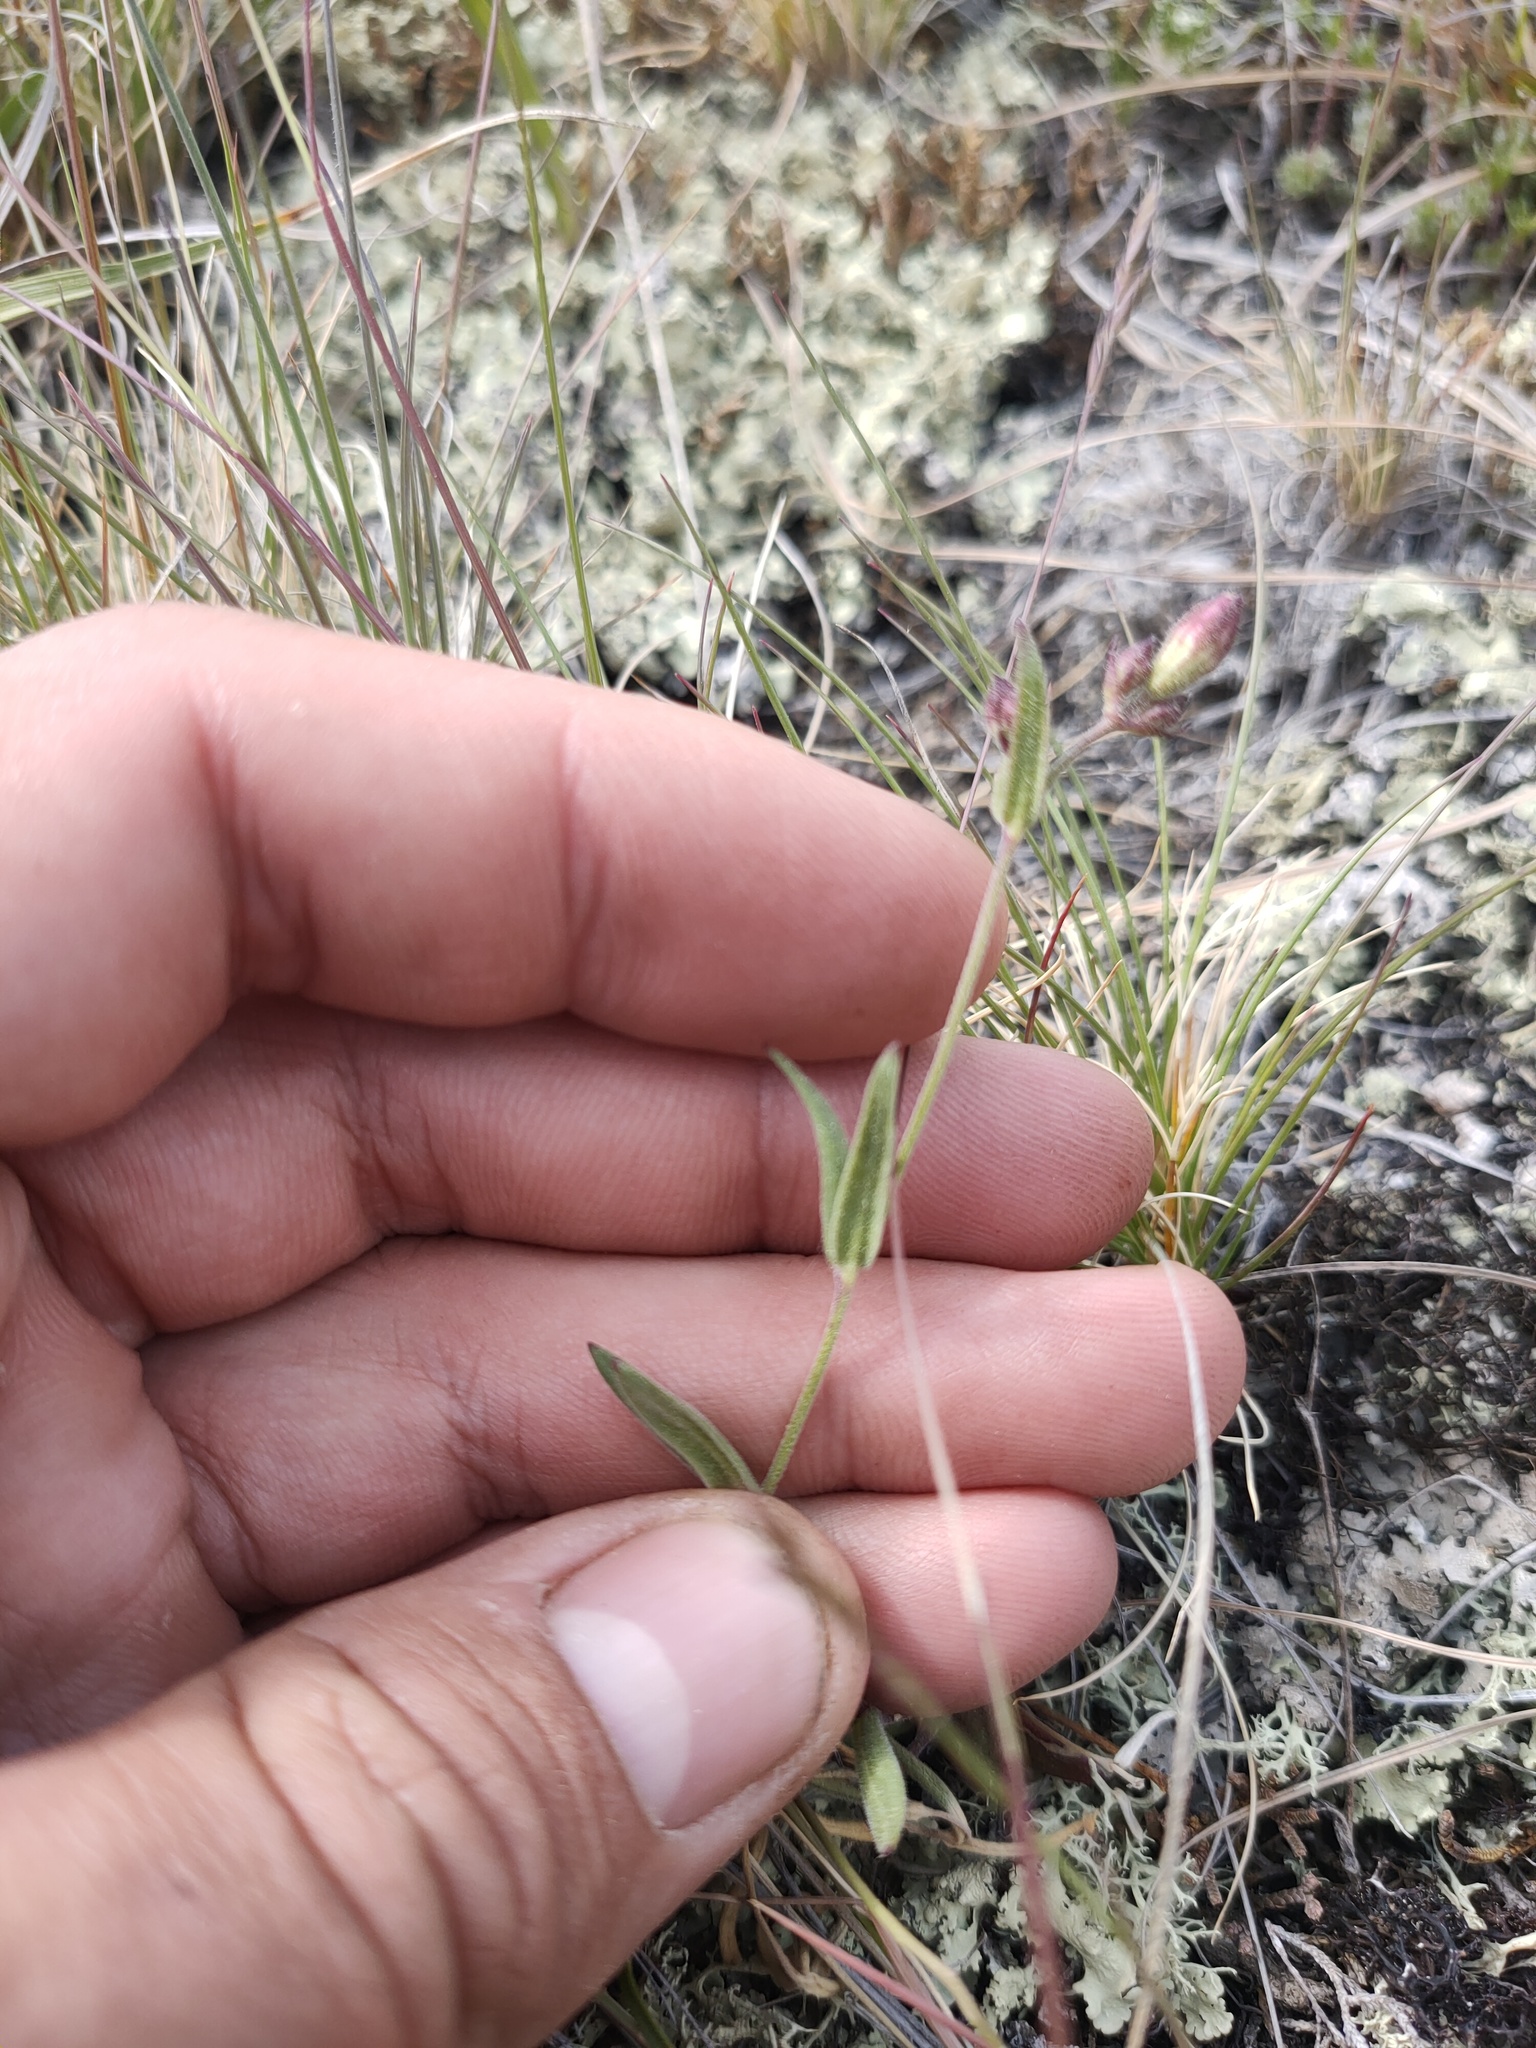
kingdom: Plantae
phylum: Tracheophyta
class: Magnoliopsida
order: Fabales
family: Polygalaceae
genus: Polygala
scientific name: Polygala sibirica
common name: Siberian polygala
